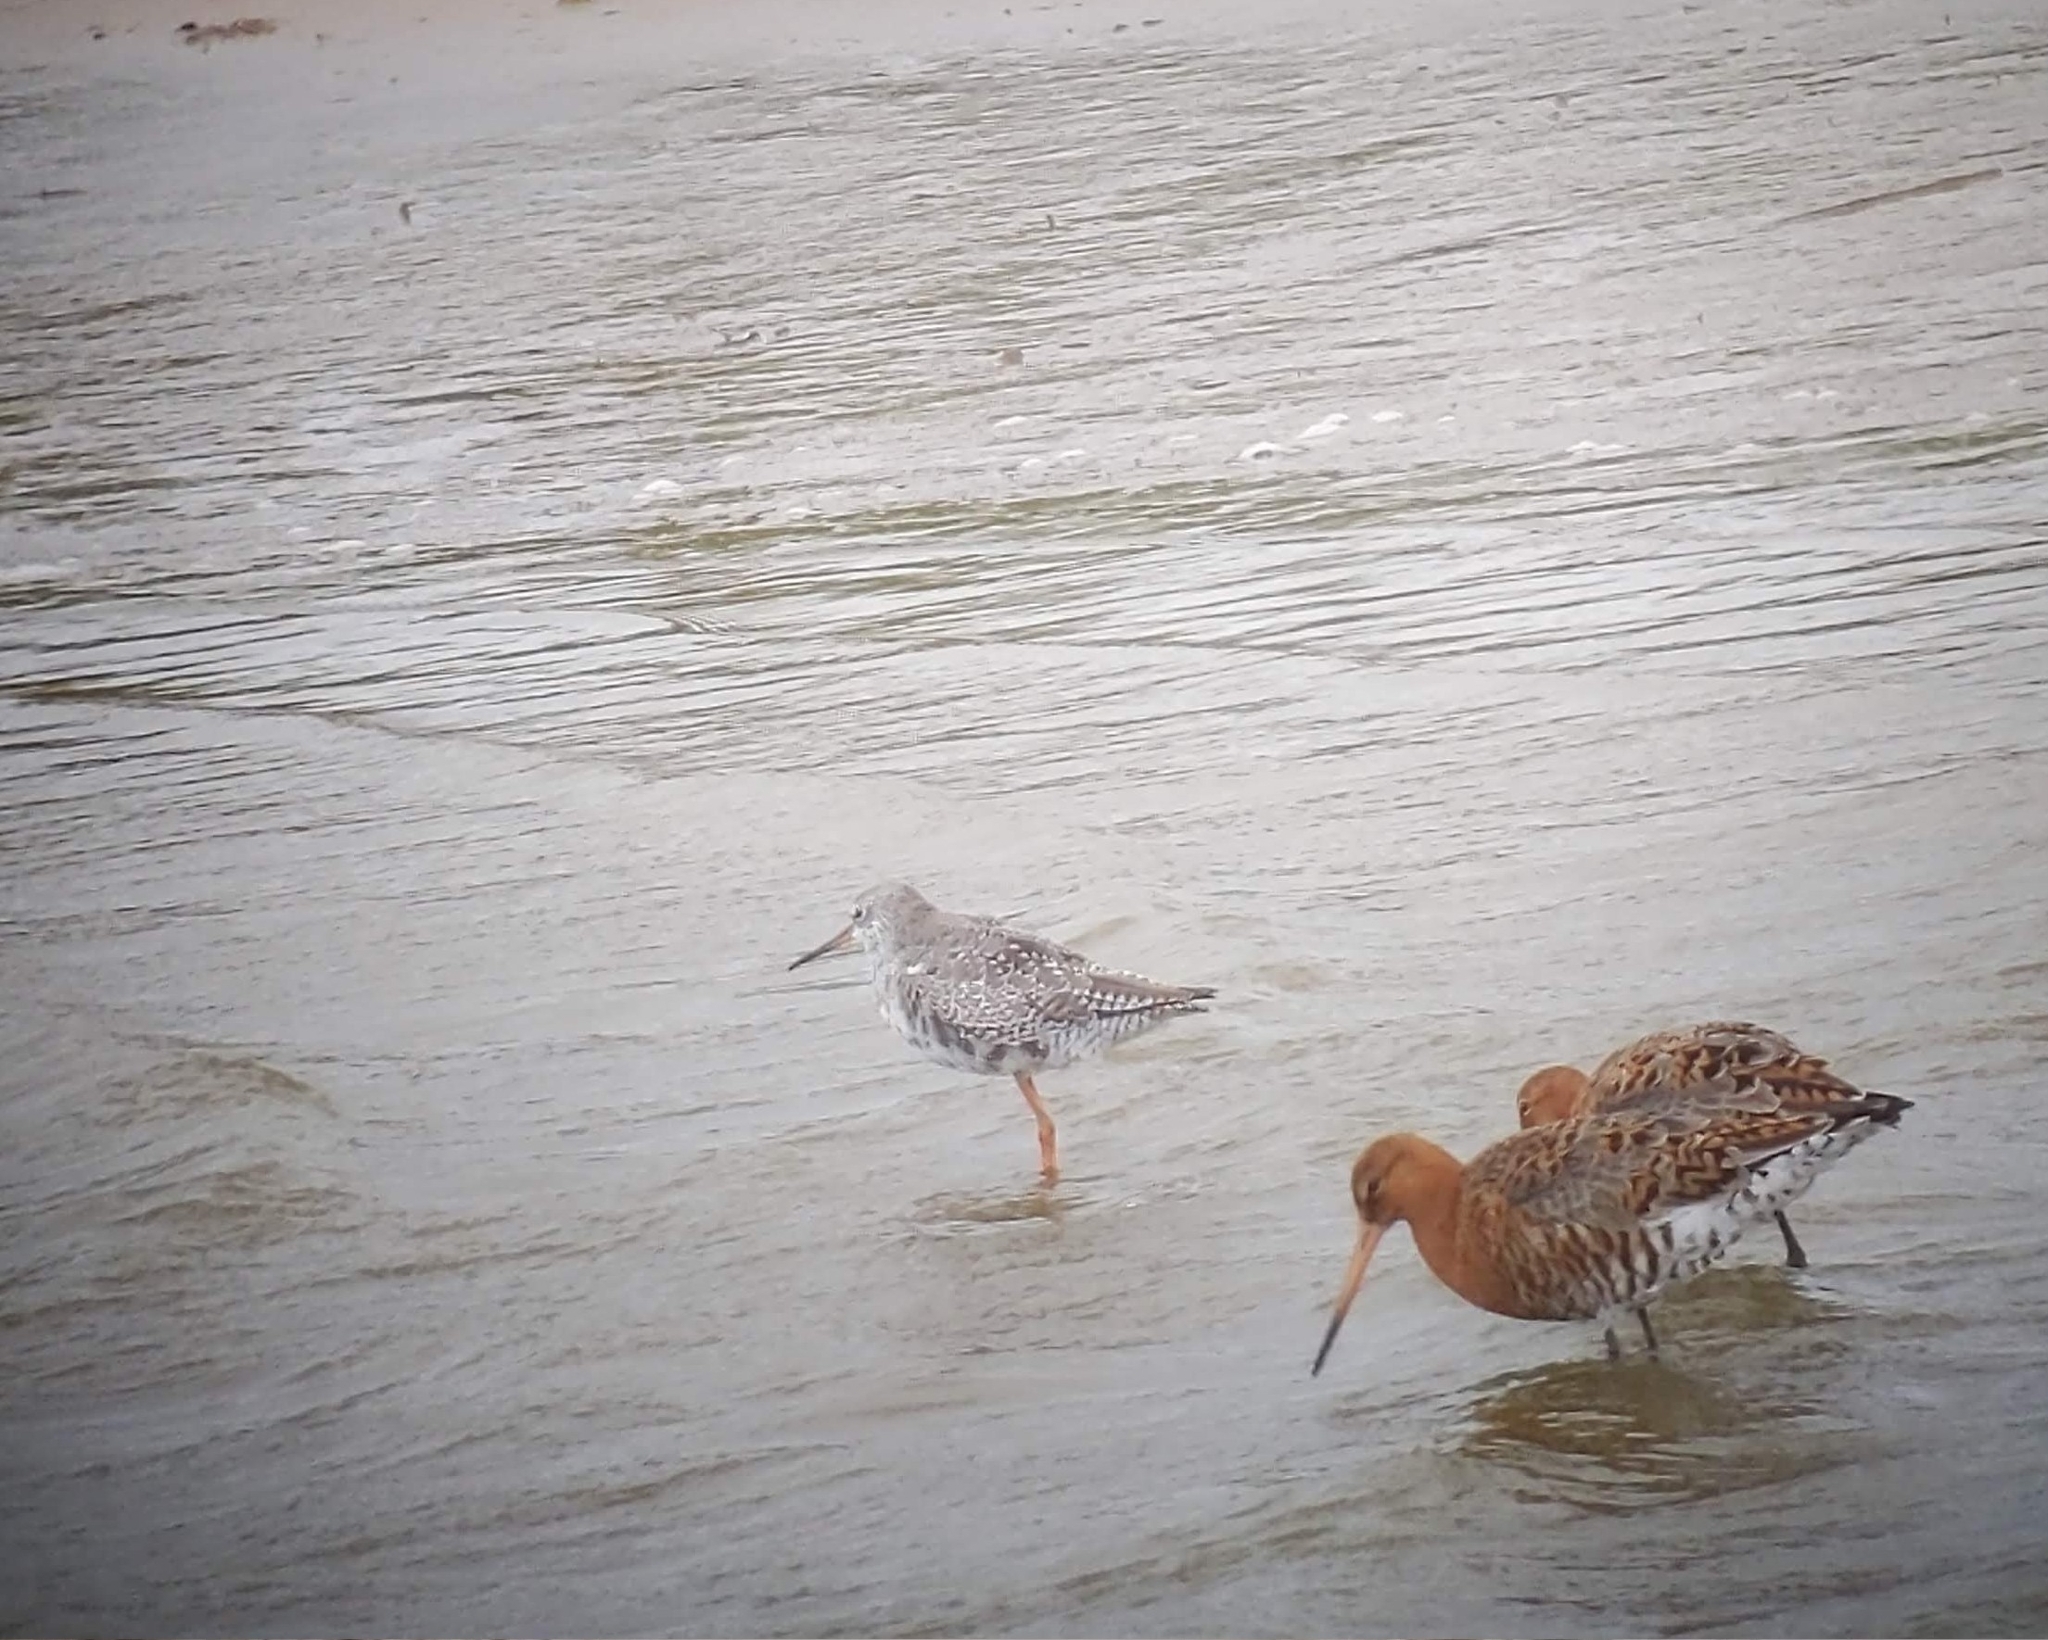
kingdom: Animalia
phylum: Chordata
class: Aves
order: Charadriiformes
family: Scolopacidae
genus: Tringa
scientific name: Tringa erythropus
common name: Spotted redshank
